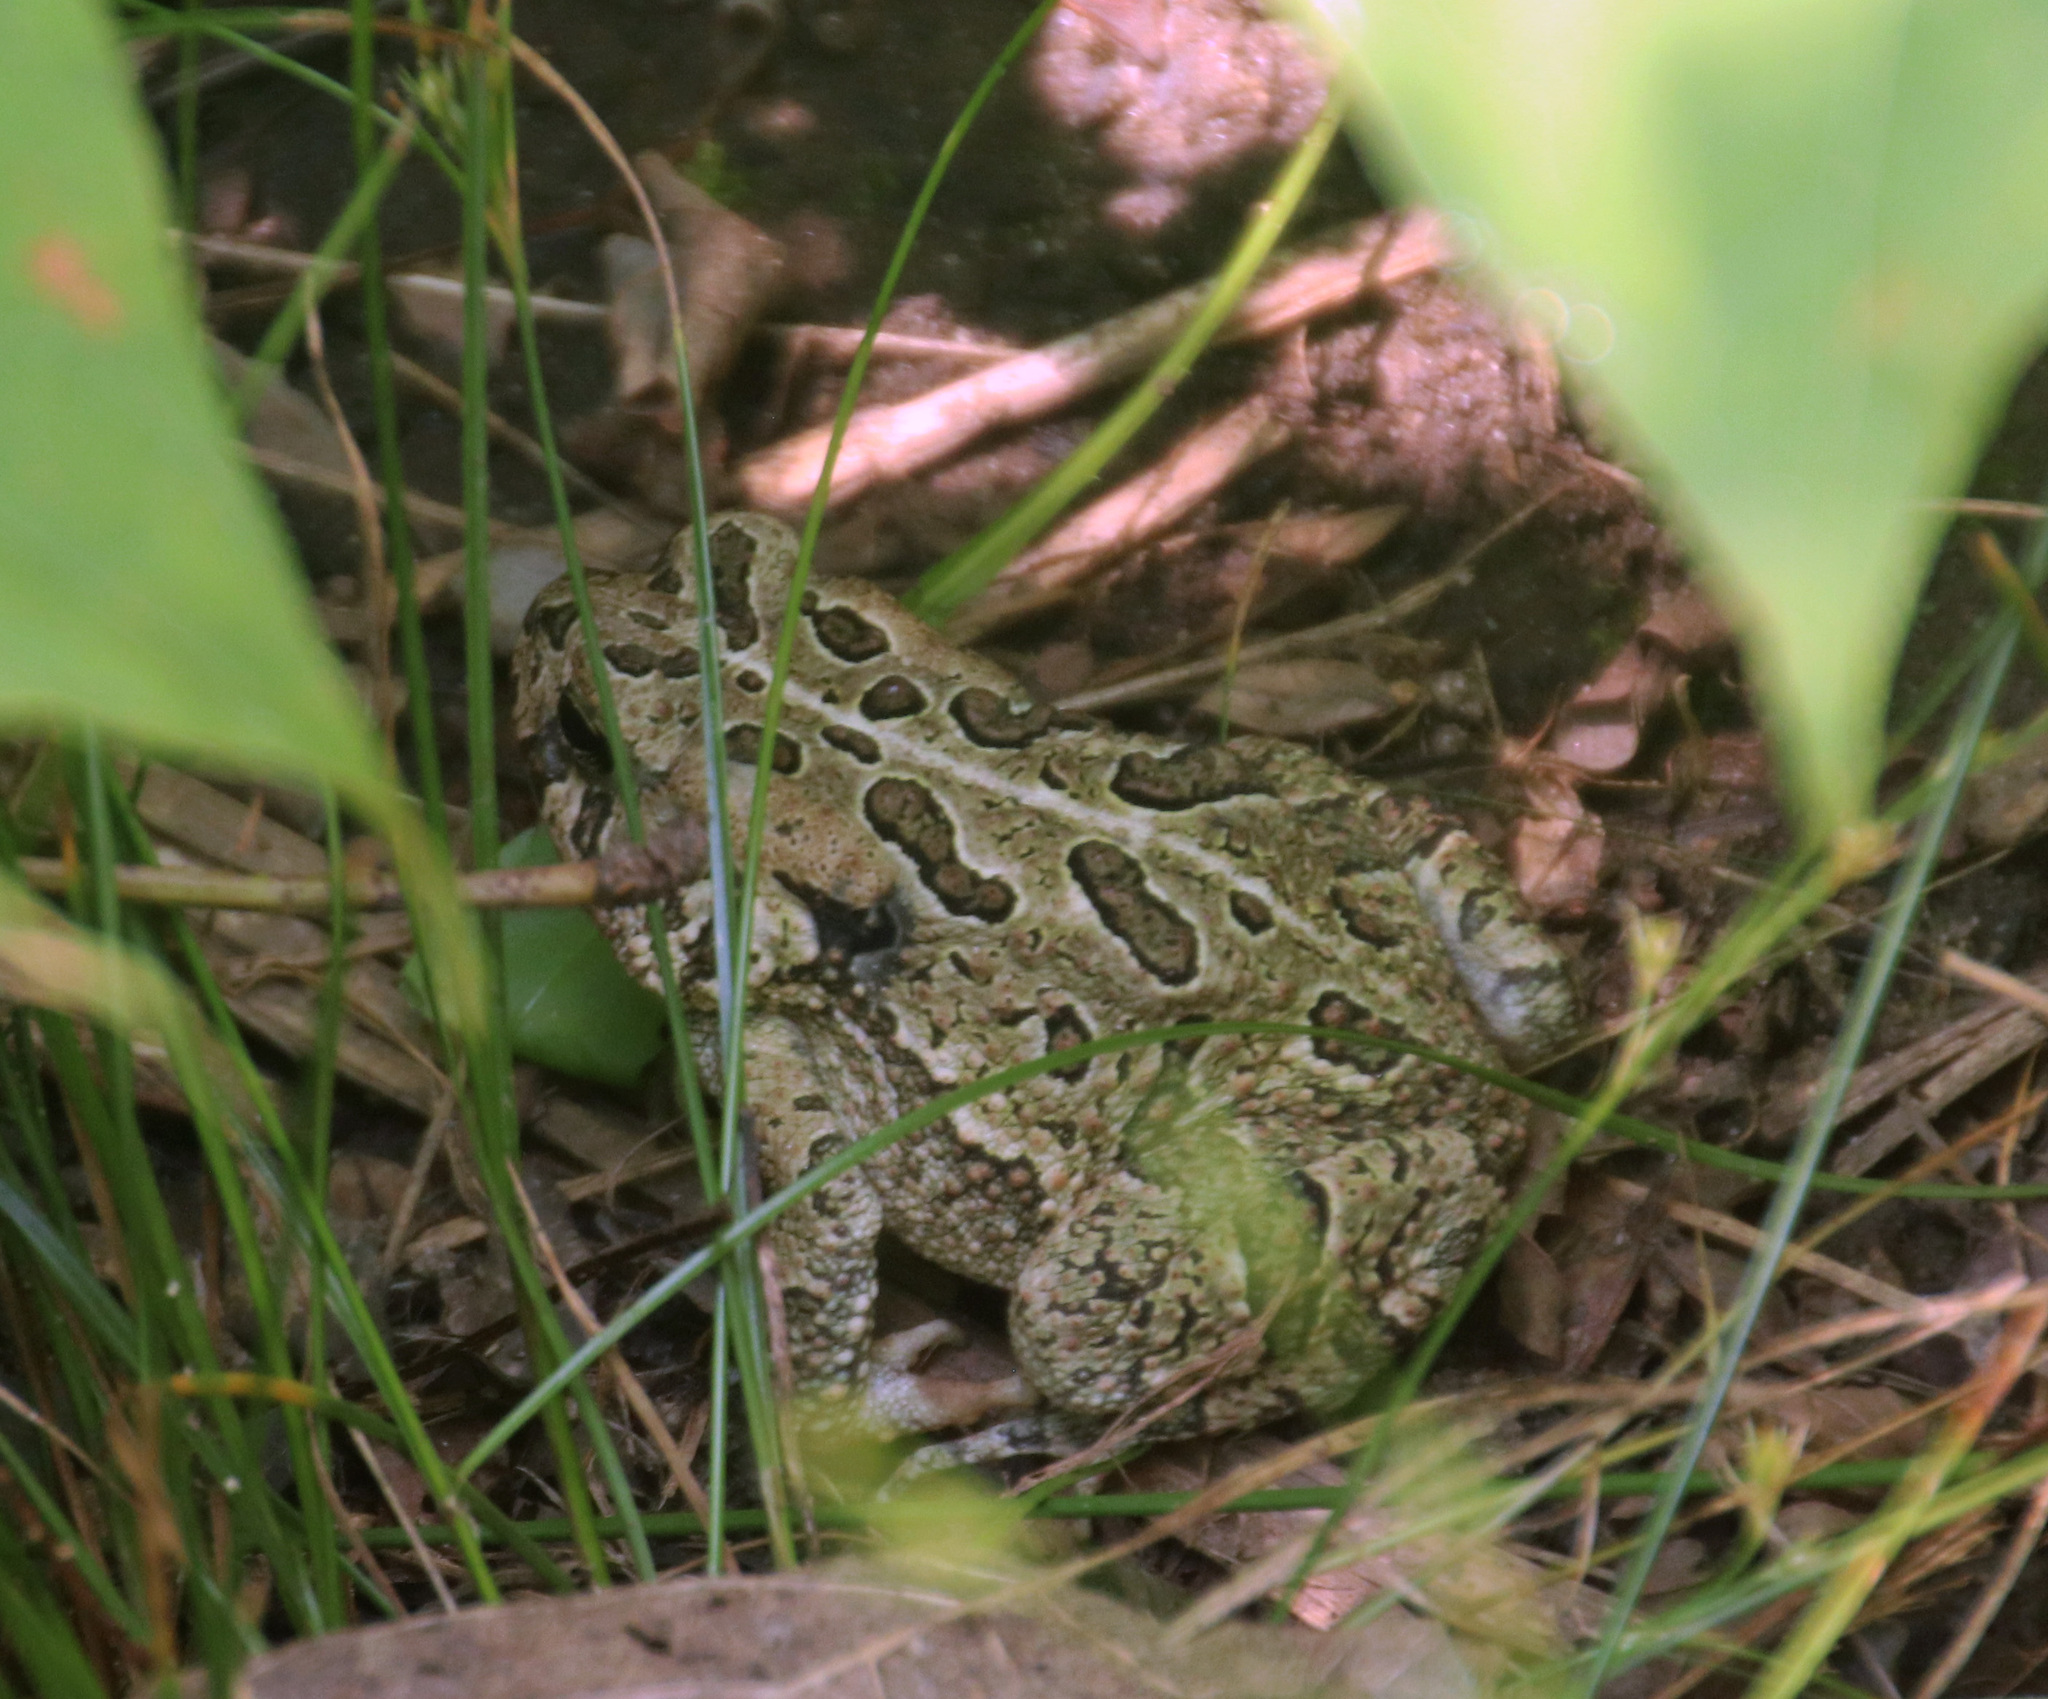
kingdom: Animalia
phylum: Chordata
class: Amphibia
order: Anura
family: Bufonidae
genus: Anaxyrus
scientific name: Anaxyrus fowleri
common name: Fowler's toad
